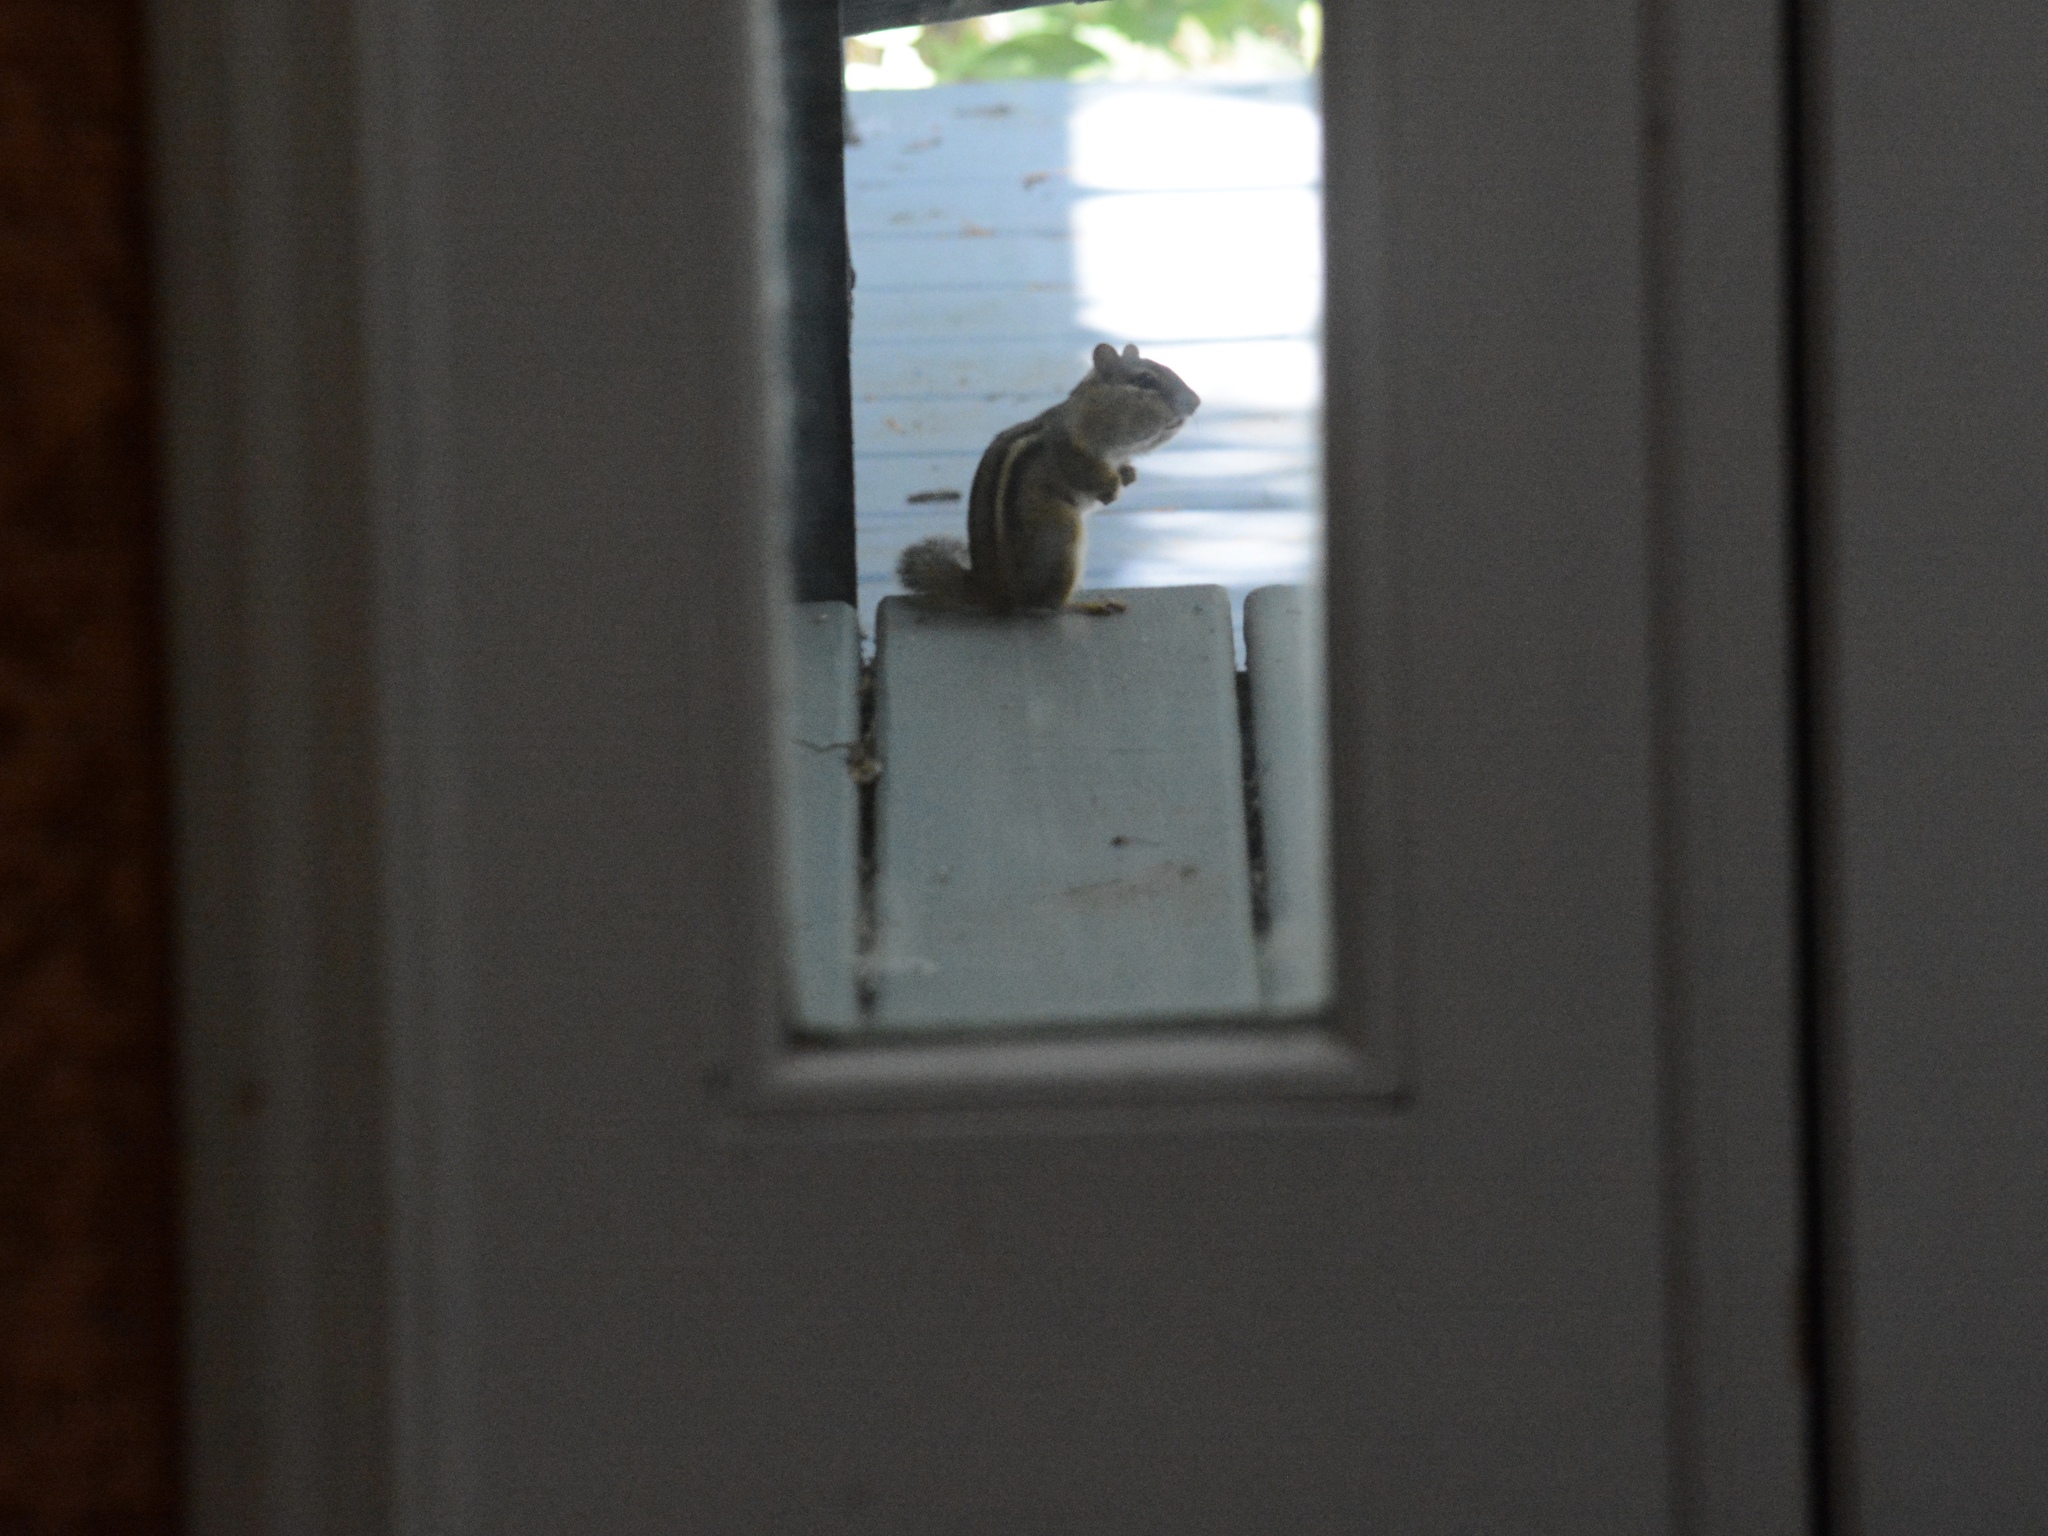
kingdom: Animalia
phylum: Chordata
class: Mammalia
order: Rodentia
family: Sciuridae
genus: Tamias
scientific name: Tamias striatus
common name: Eastern chipmunk
